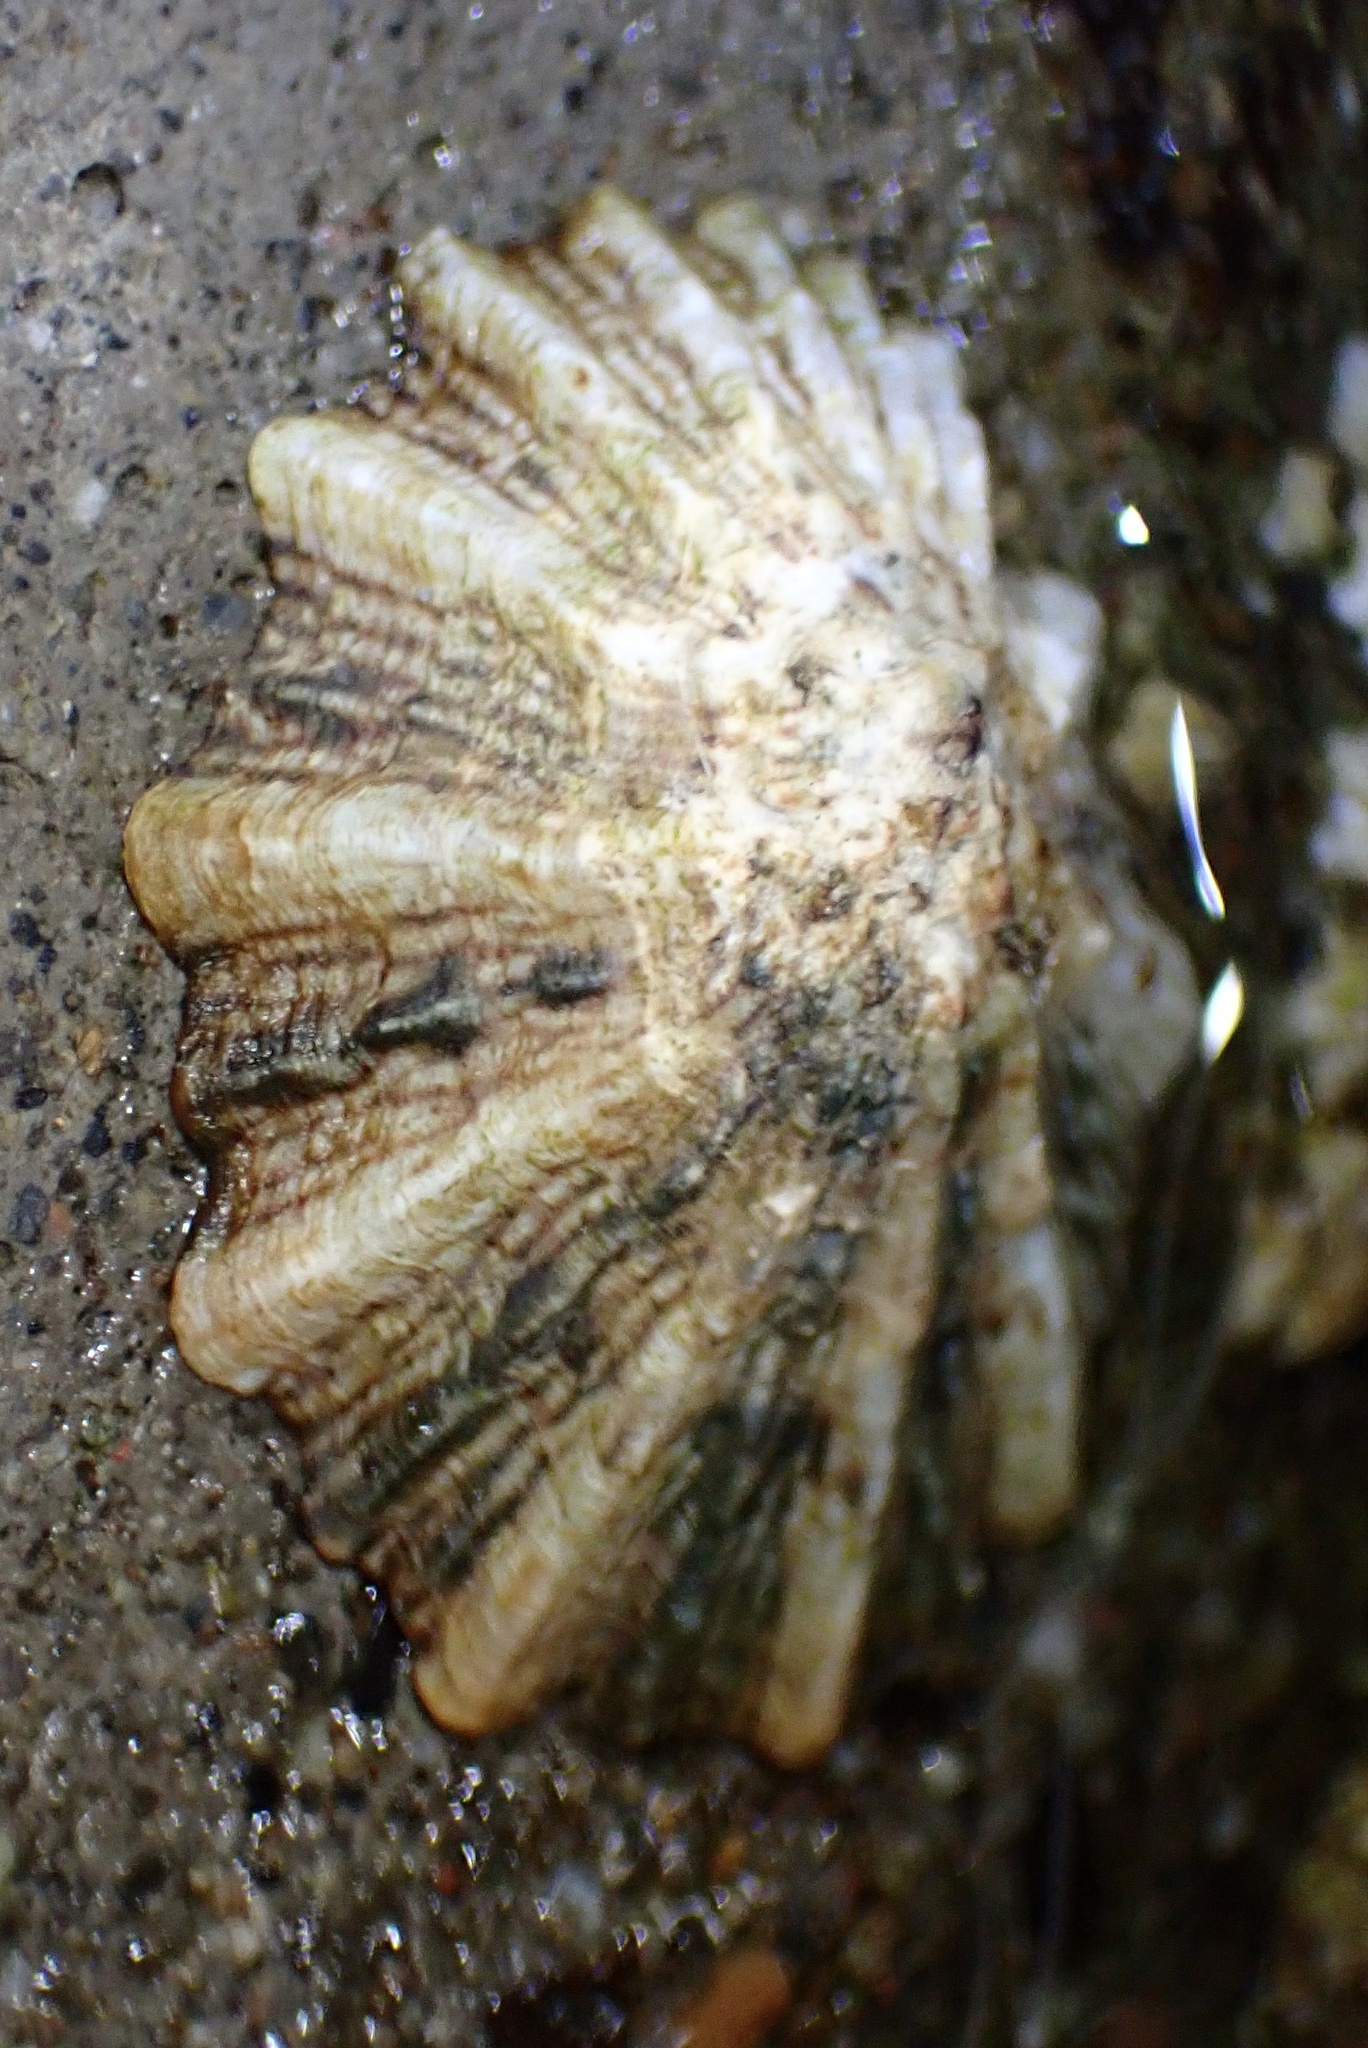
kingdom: Animalia
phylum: Mollusca
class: Gastropoda
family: Lottiidae
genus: Lottia
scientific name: Lottia scabra
